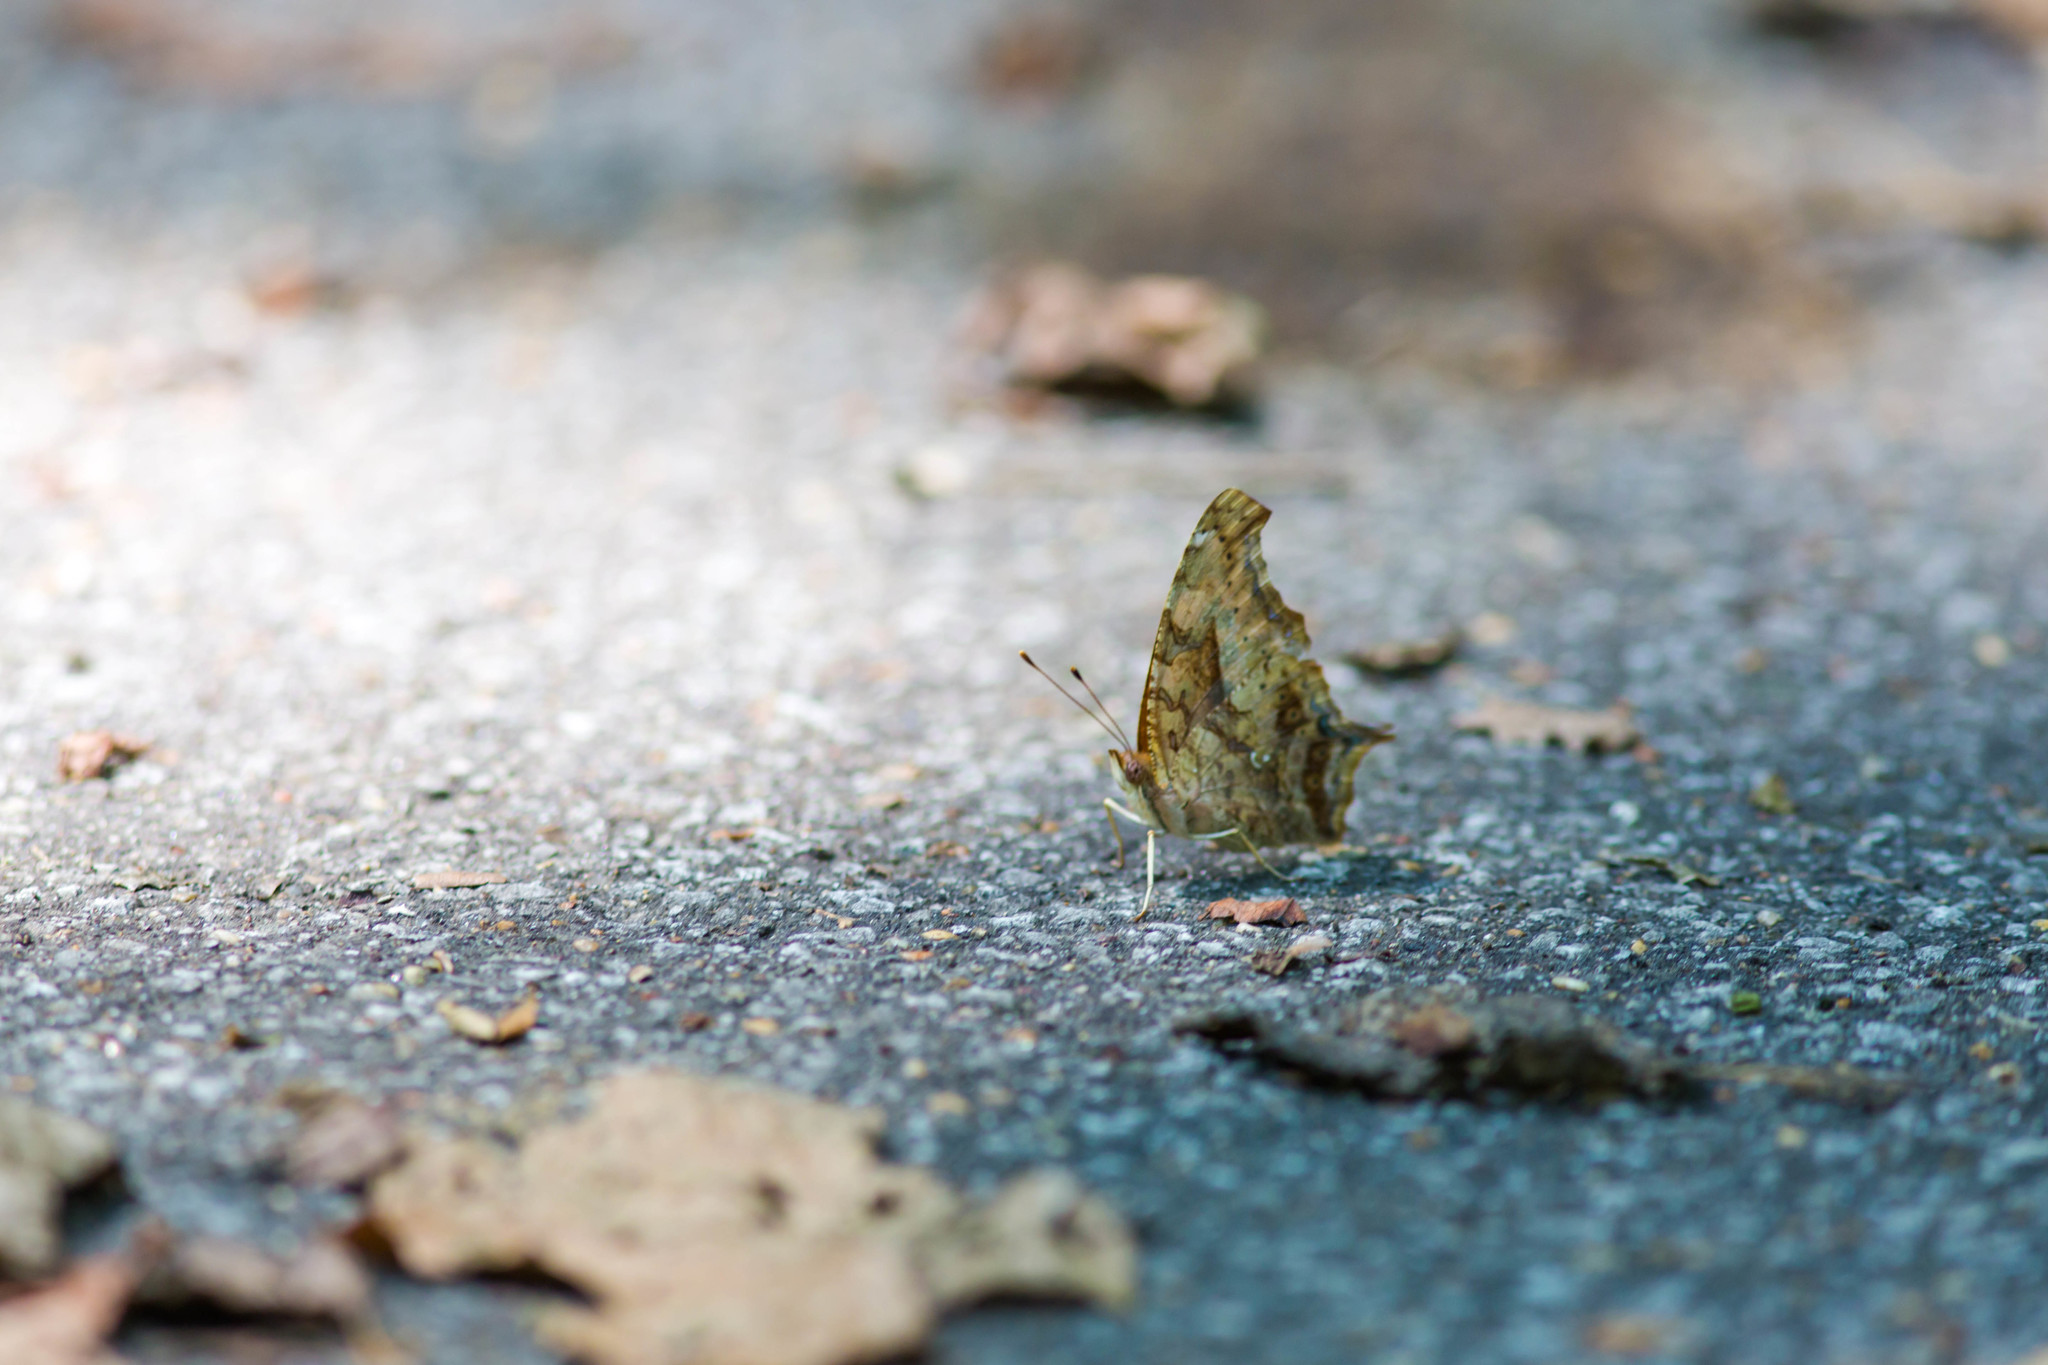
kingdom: Animalia
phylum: Arthropoda
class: Insecta
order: Lepidoptera
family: Nymphalidae
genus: Polygonia
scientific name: Polygonia interrogationis
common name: Question mark
